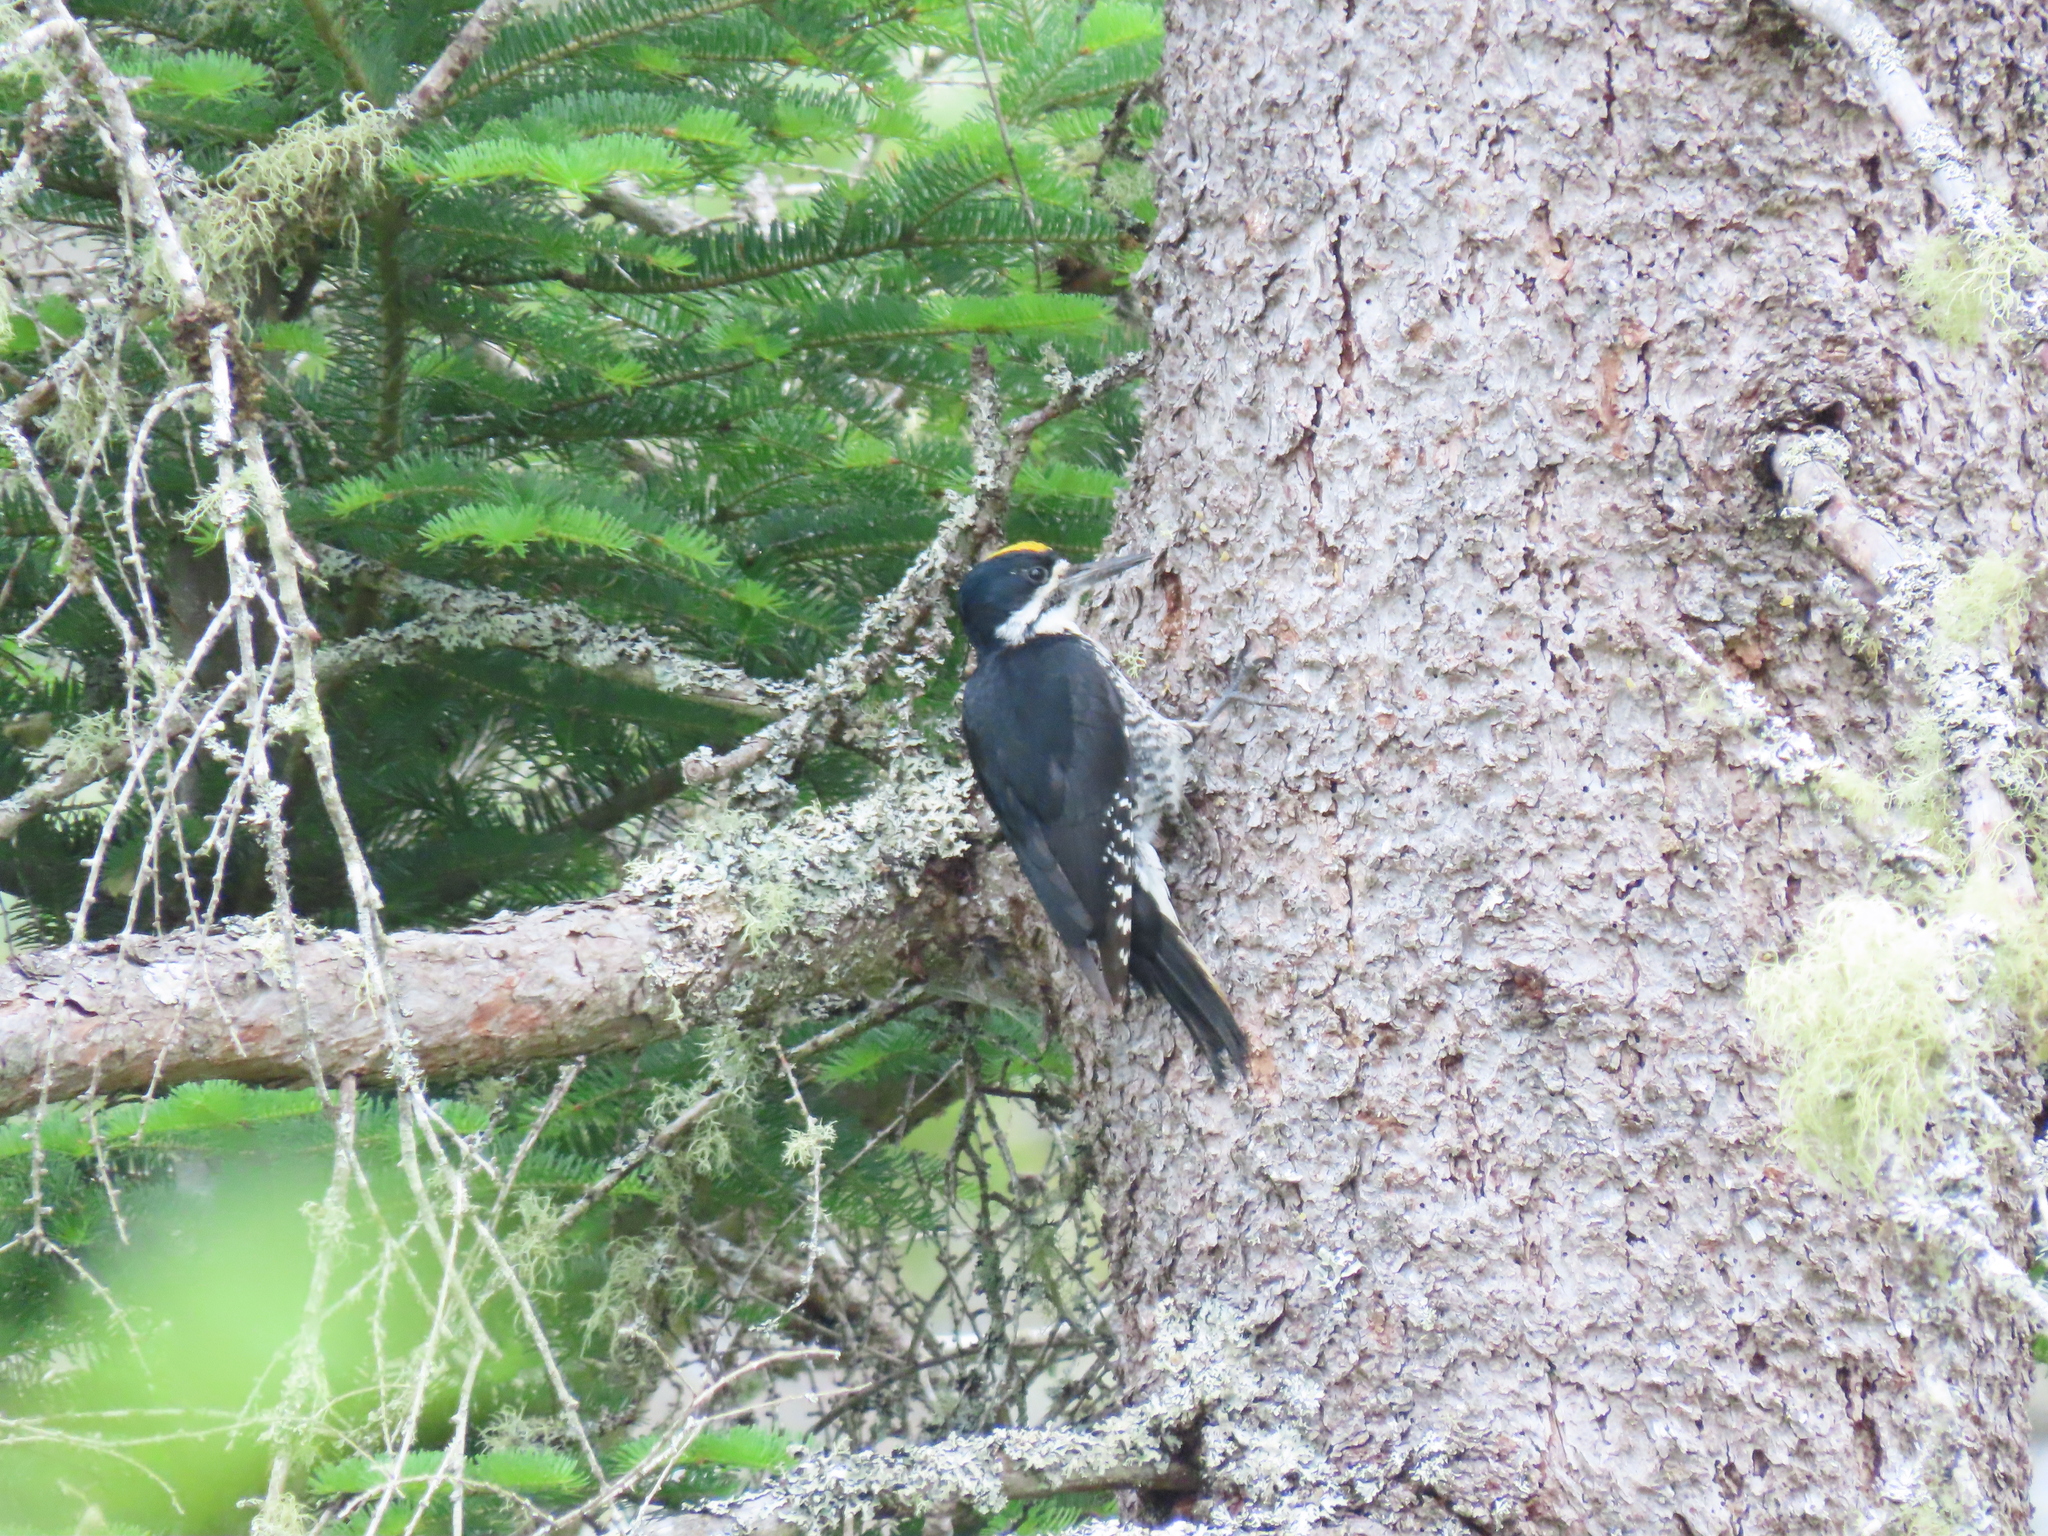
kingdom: Animalia
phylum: Chordata
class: Aves
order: Piciformes
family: Picidae
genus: Picoides
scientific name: Picoides arcticus
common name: Black-backed woodpecker
